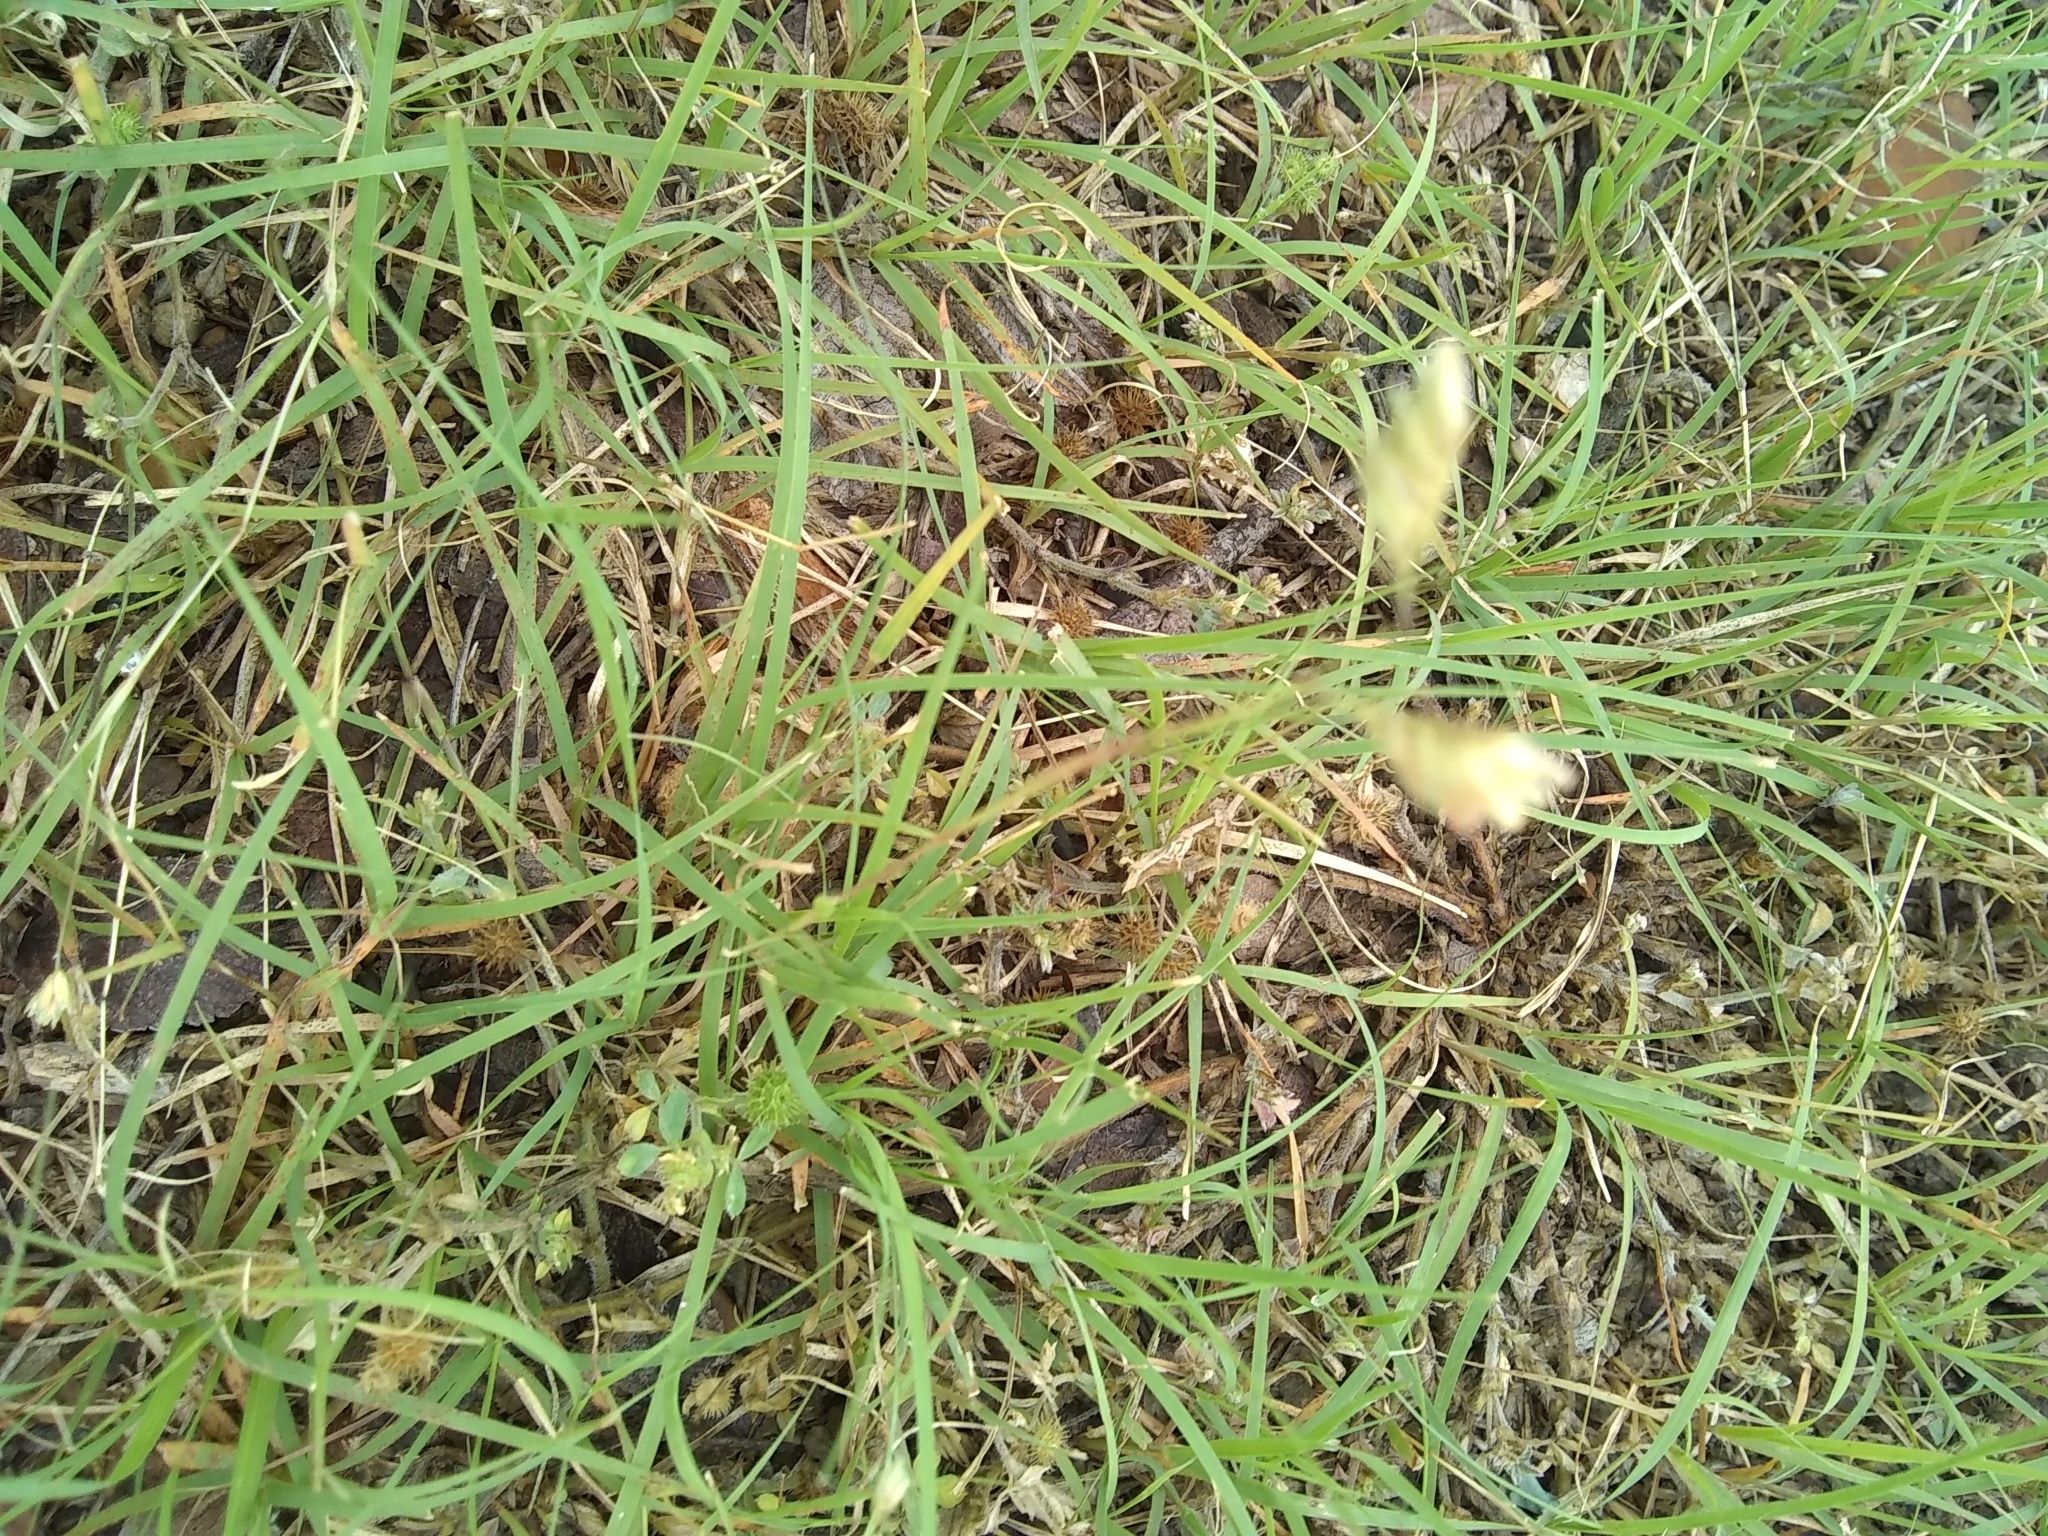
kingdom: Plantae
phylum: Tracheophyta
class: Liliopsida
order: Poales
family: Poaceae
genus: Bouteloua
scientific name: Bouteloua dactyloides
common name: Buffalo grass
